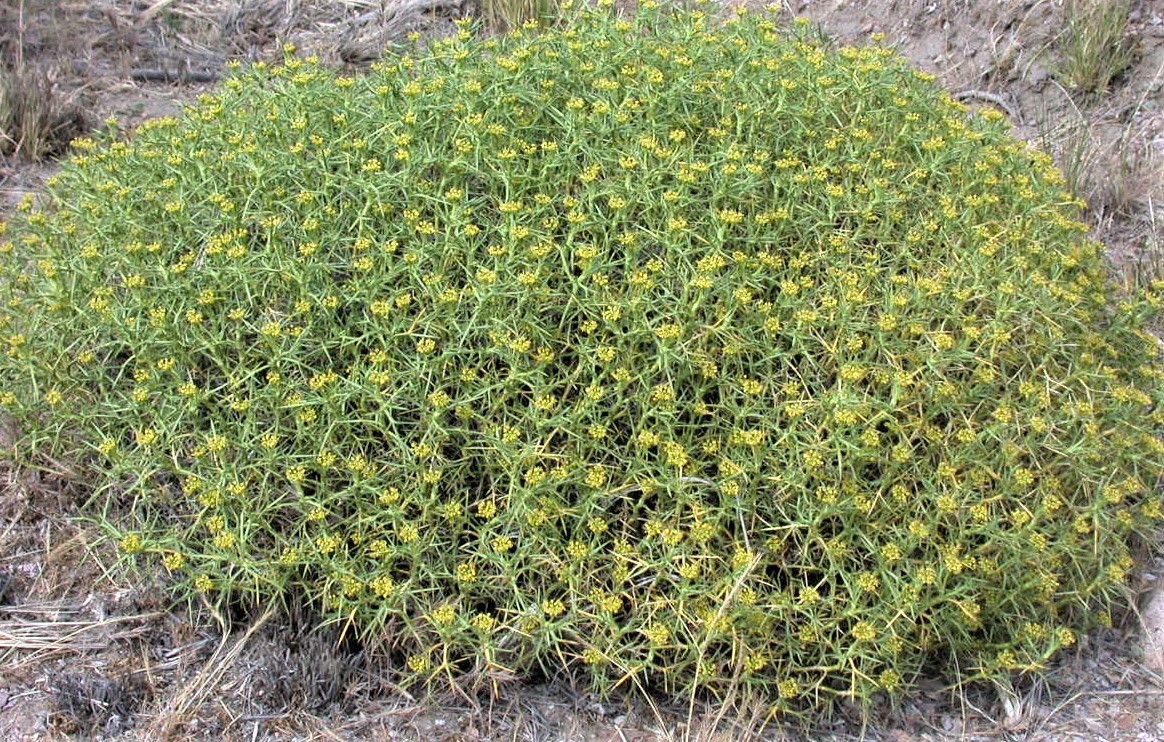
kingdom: Plantae
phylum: Tracheophyta
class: Magnoliopsida
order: Apiales
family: Apiaceae
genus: Azorella
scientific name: Azorella prolifera
